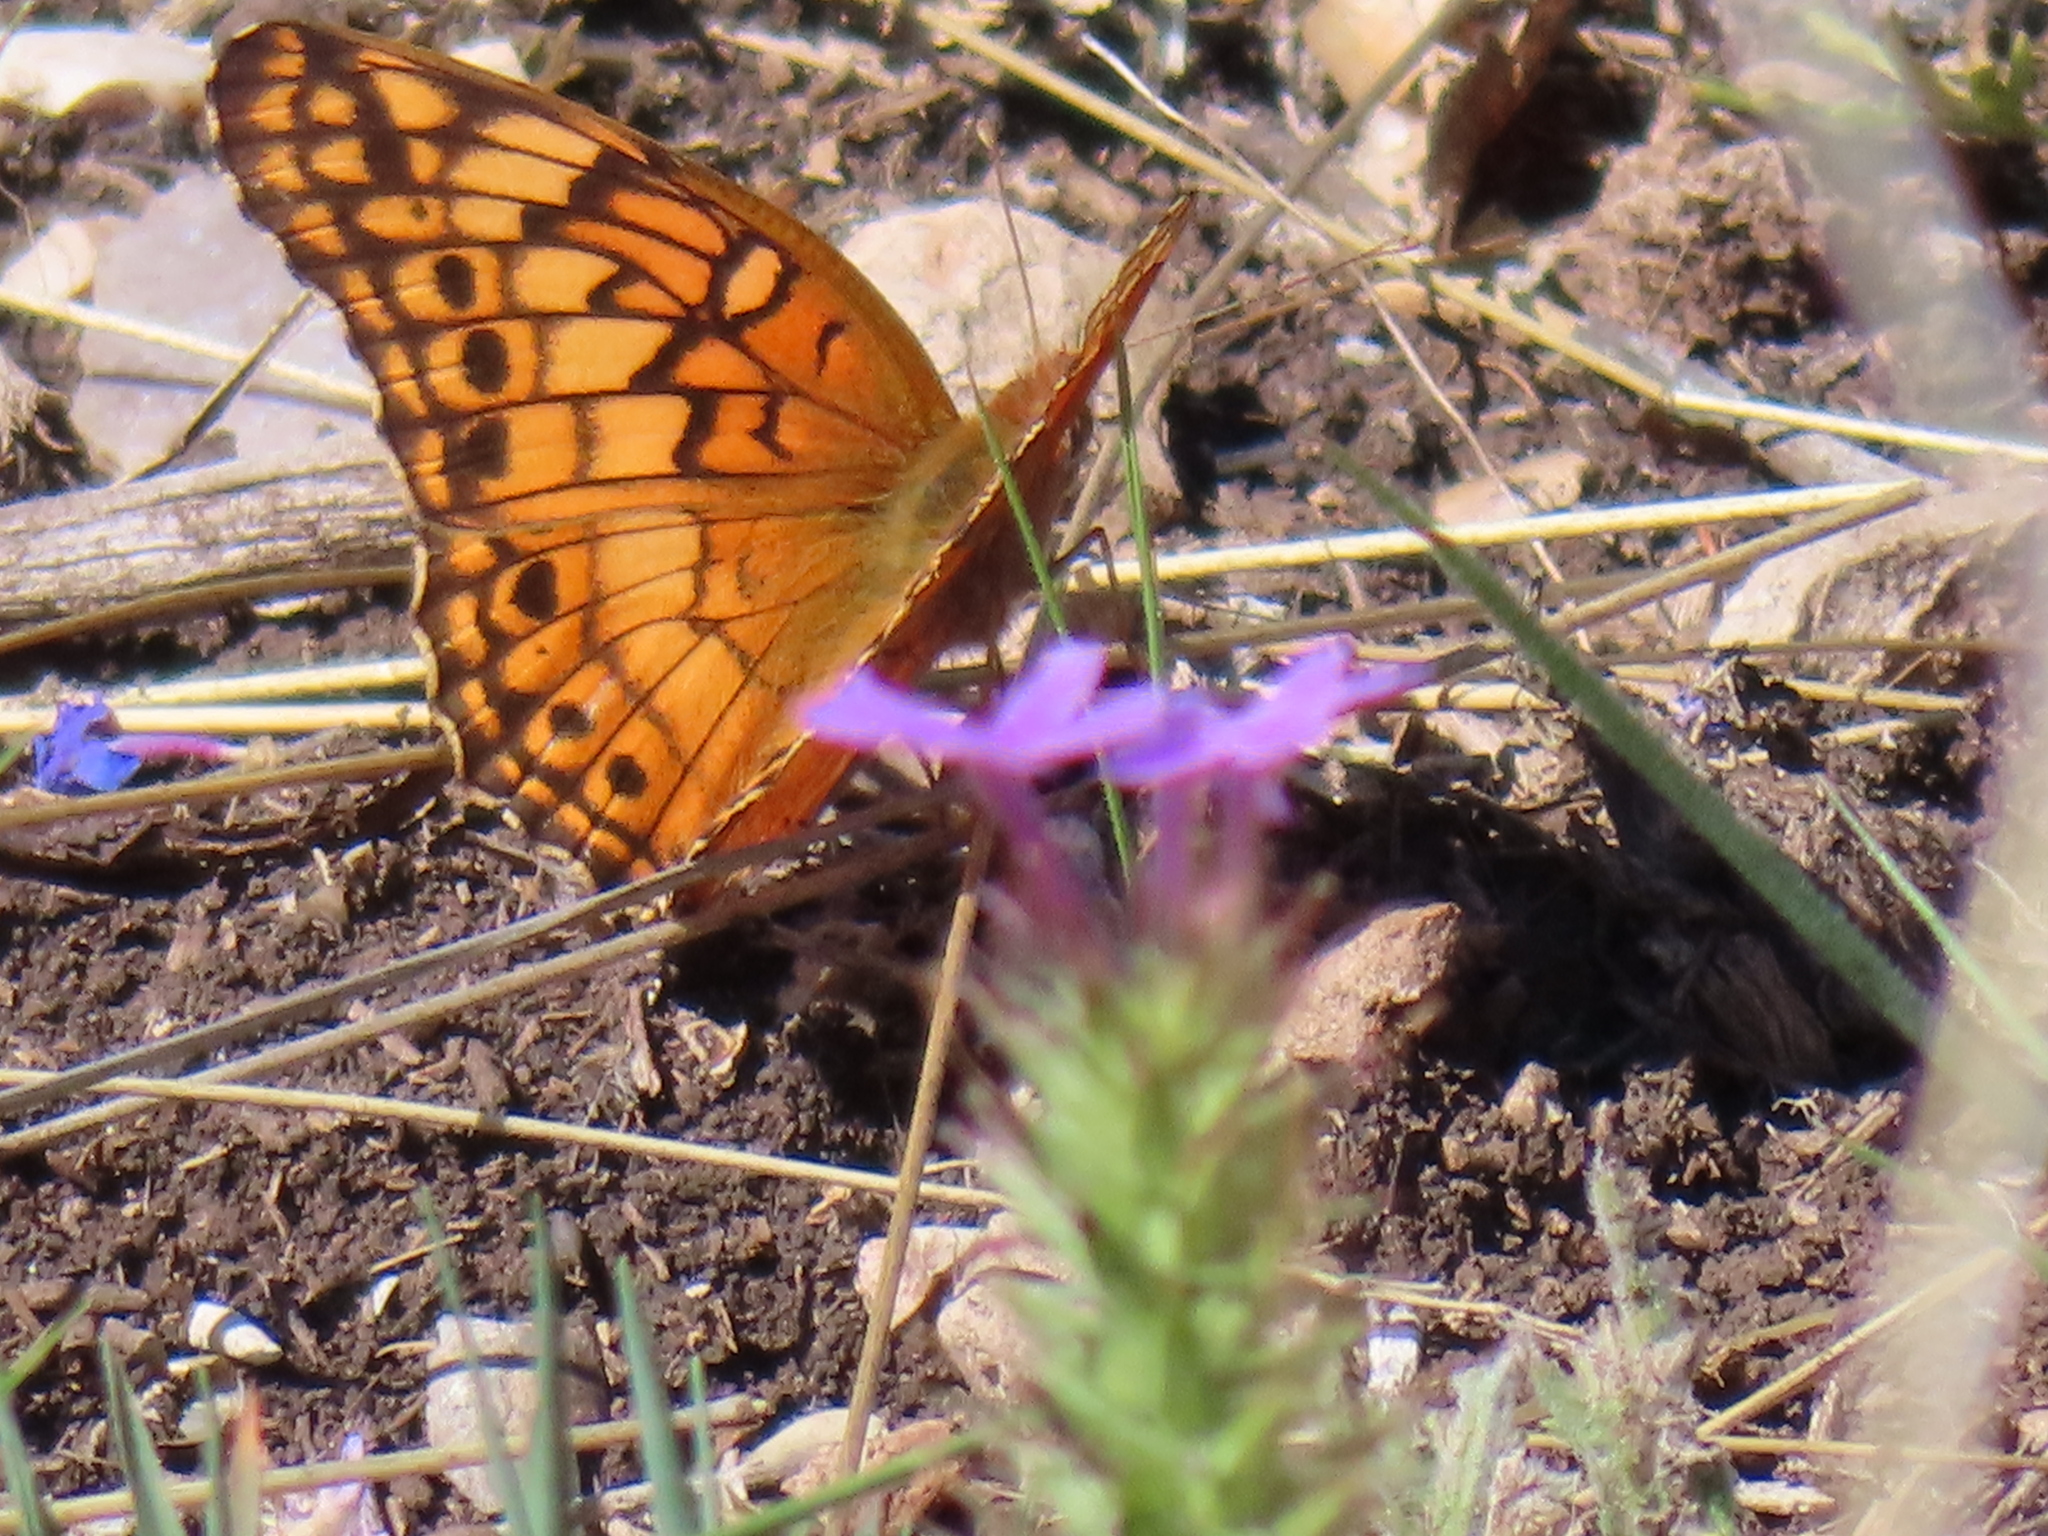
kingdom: Animalia
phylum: Arthropoda
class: Insecta
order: Lepidoptera
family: Nymphalidae
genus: Euptoieta
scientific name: Euptoieta claudia
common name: Variegated fritillary
